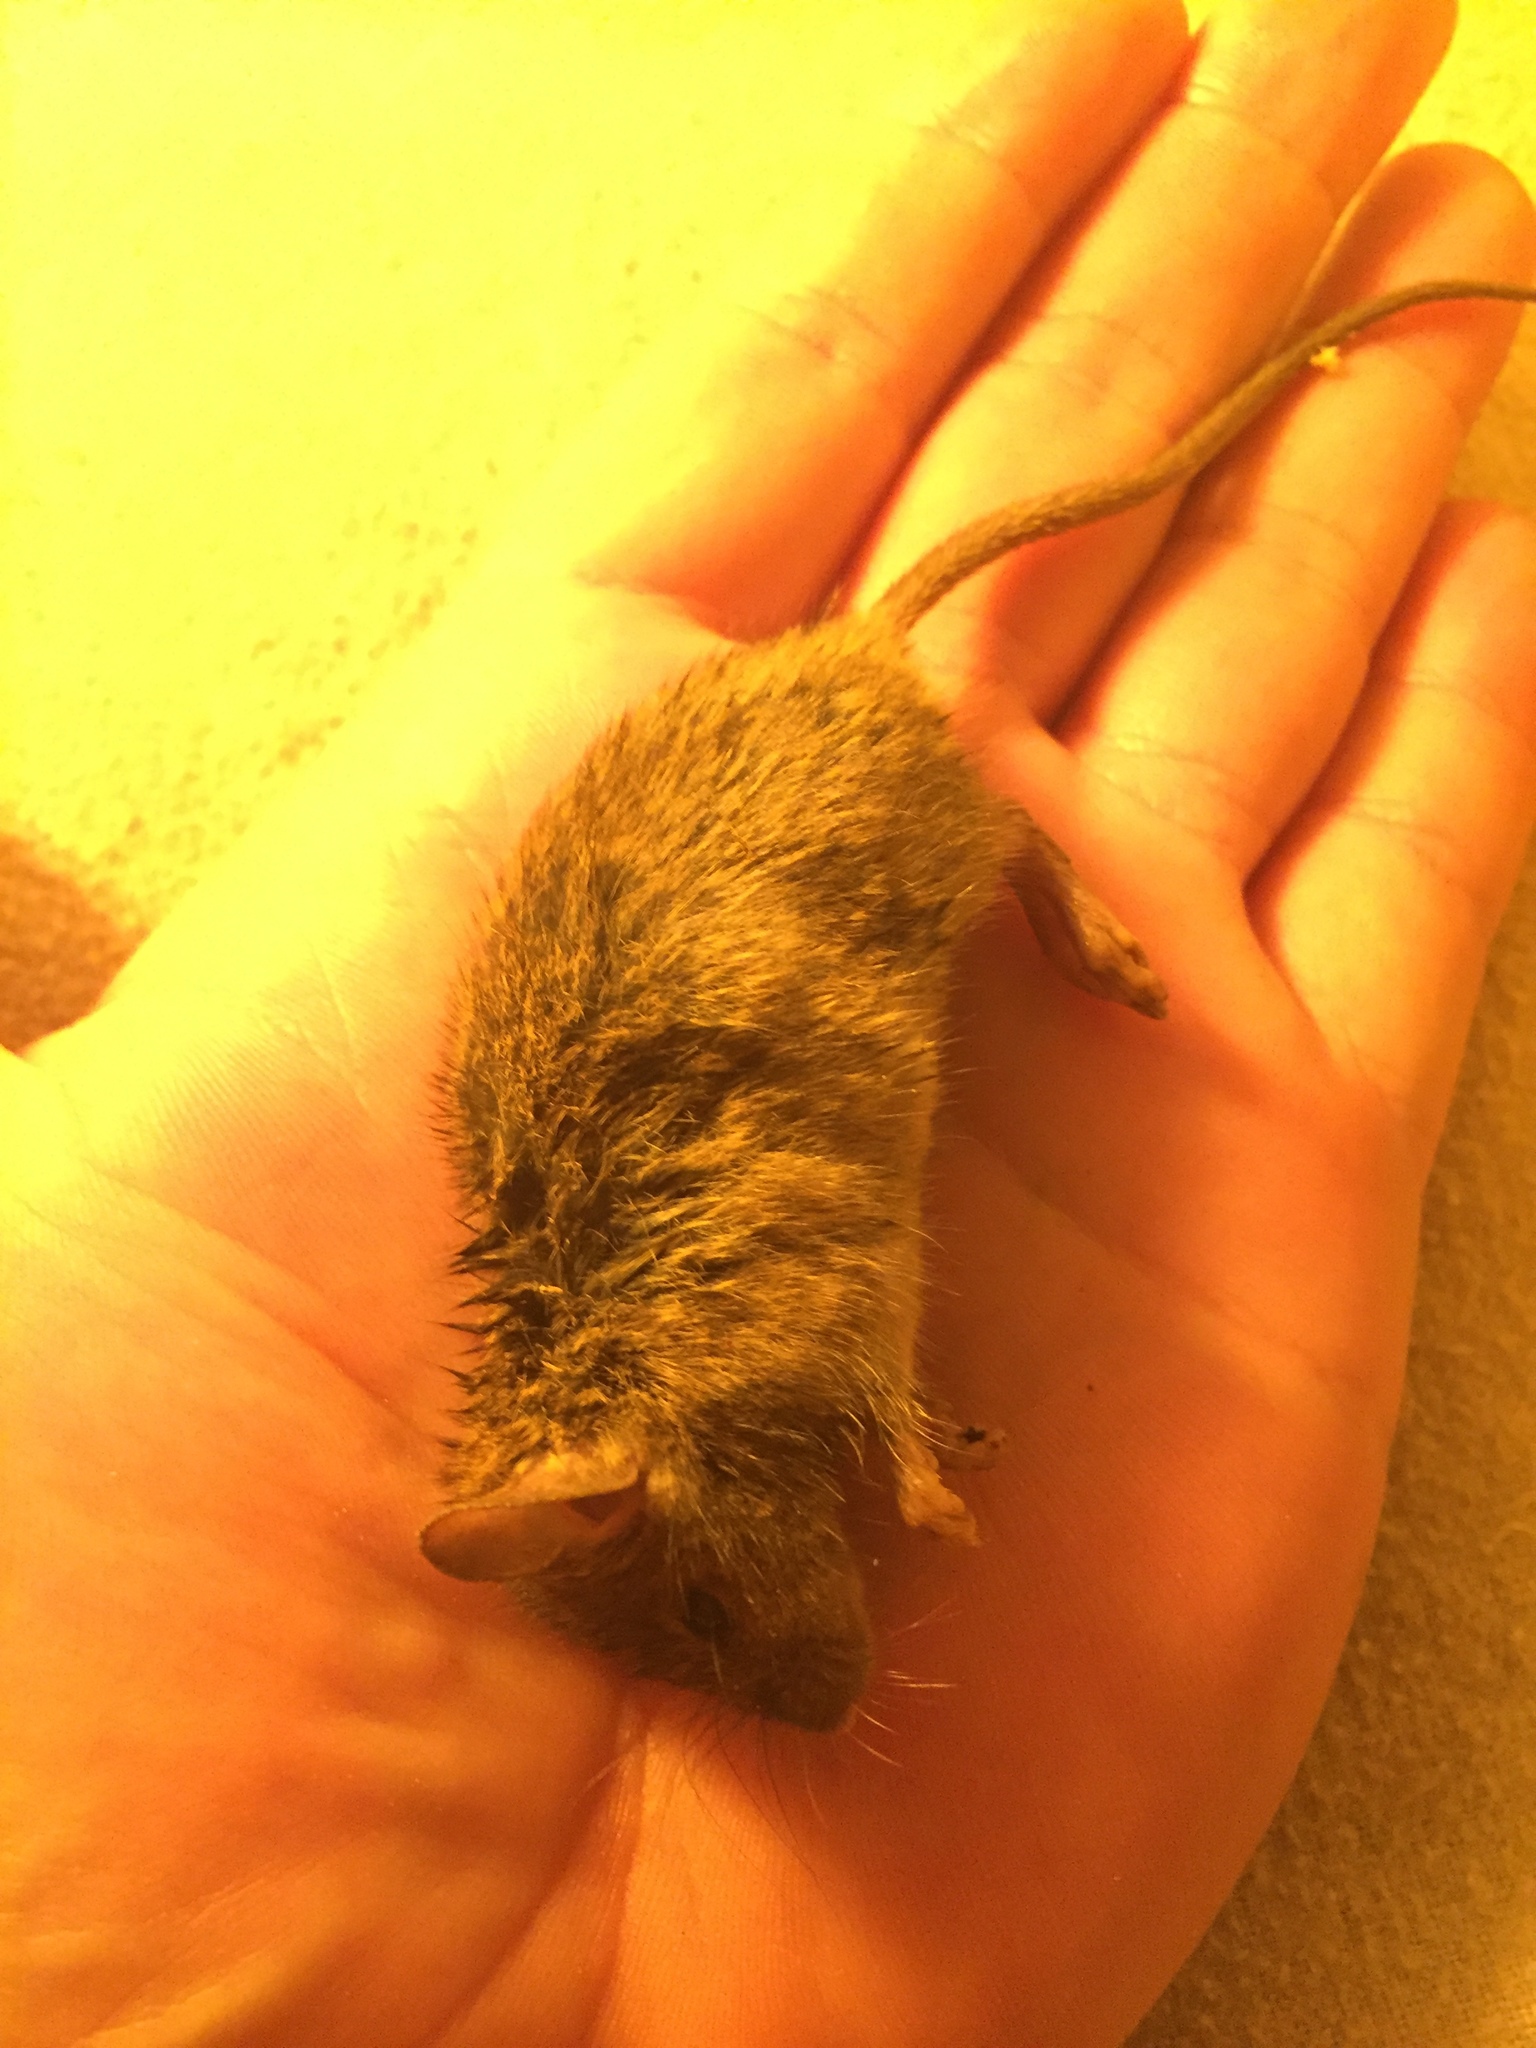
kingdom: Animalia
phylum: Chordata
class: Mammalia
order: Rodentia
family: Muridae
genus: Mus
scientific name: Mus musculus
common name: House mouse
